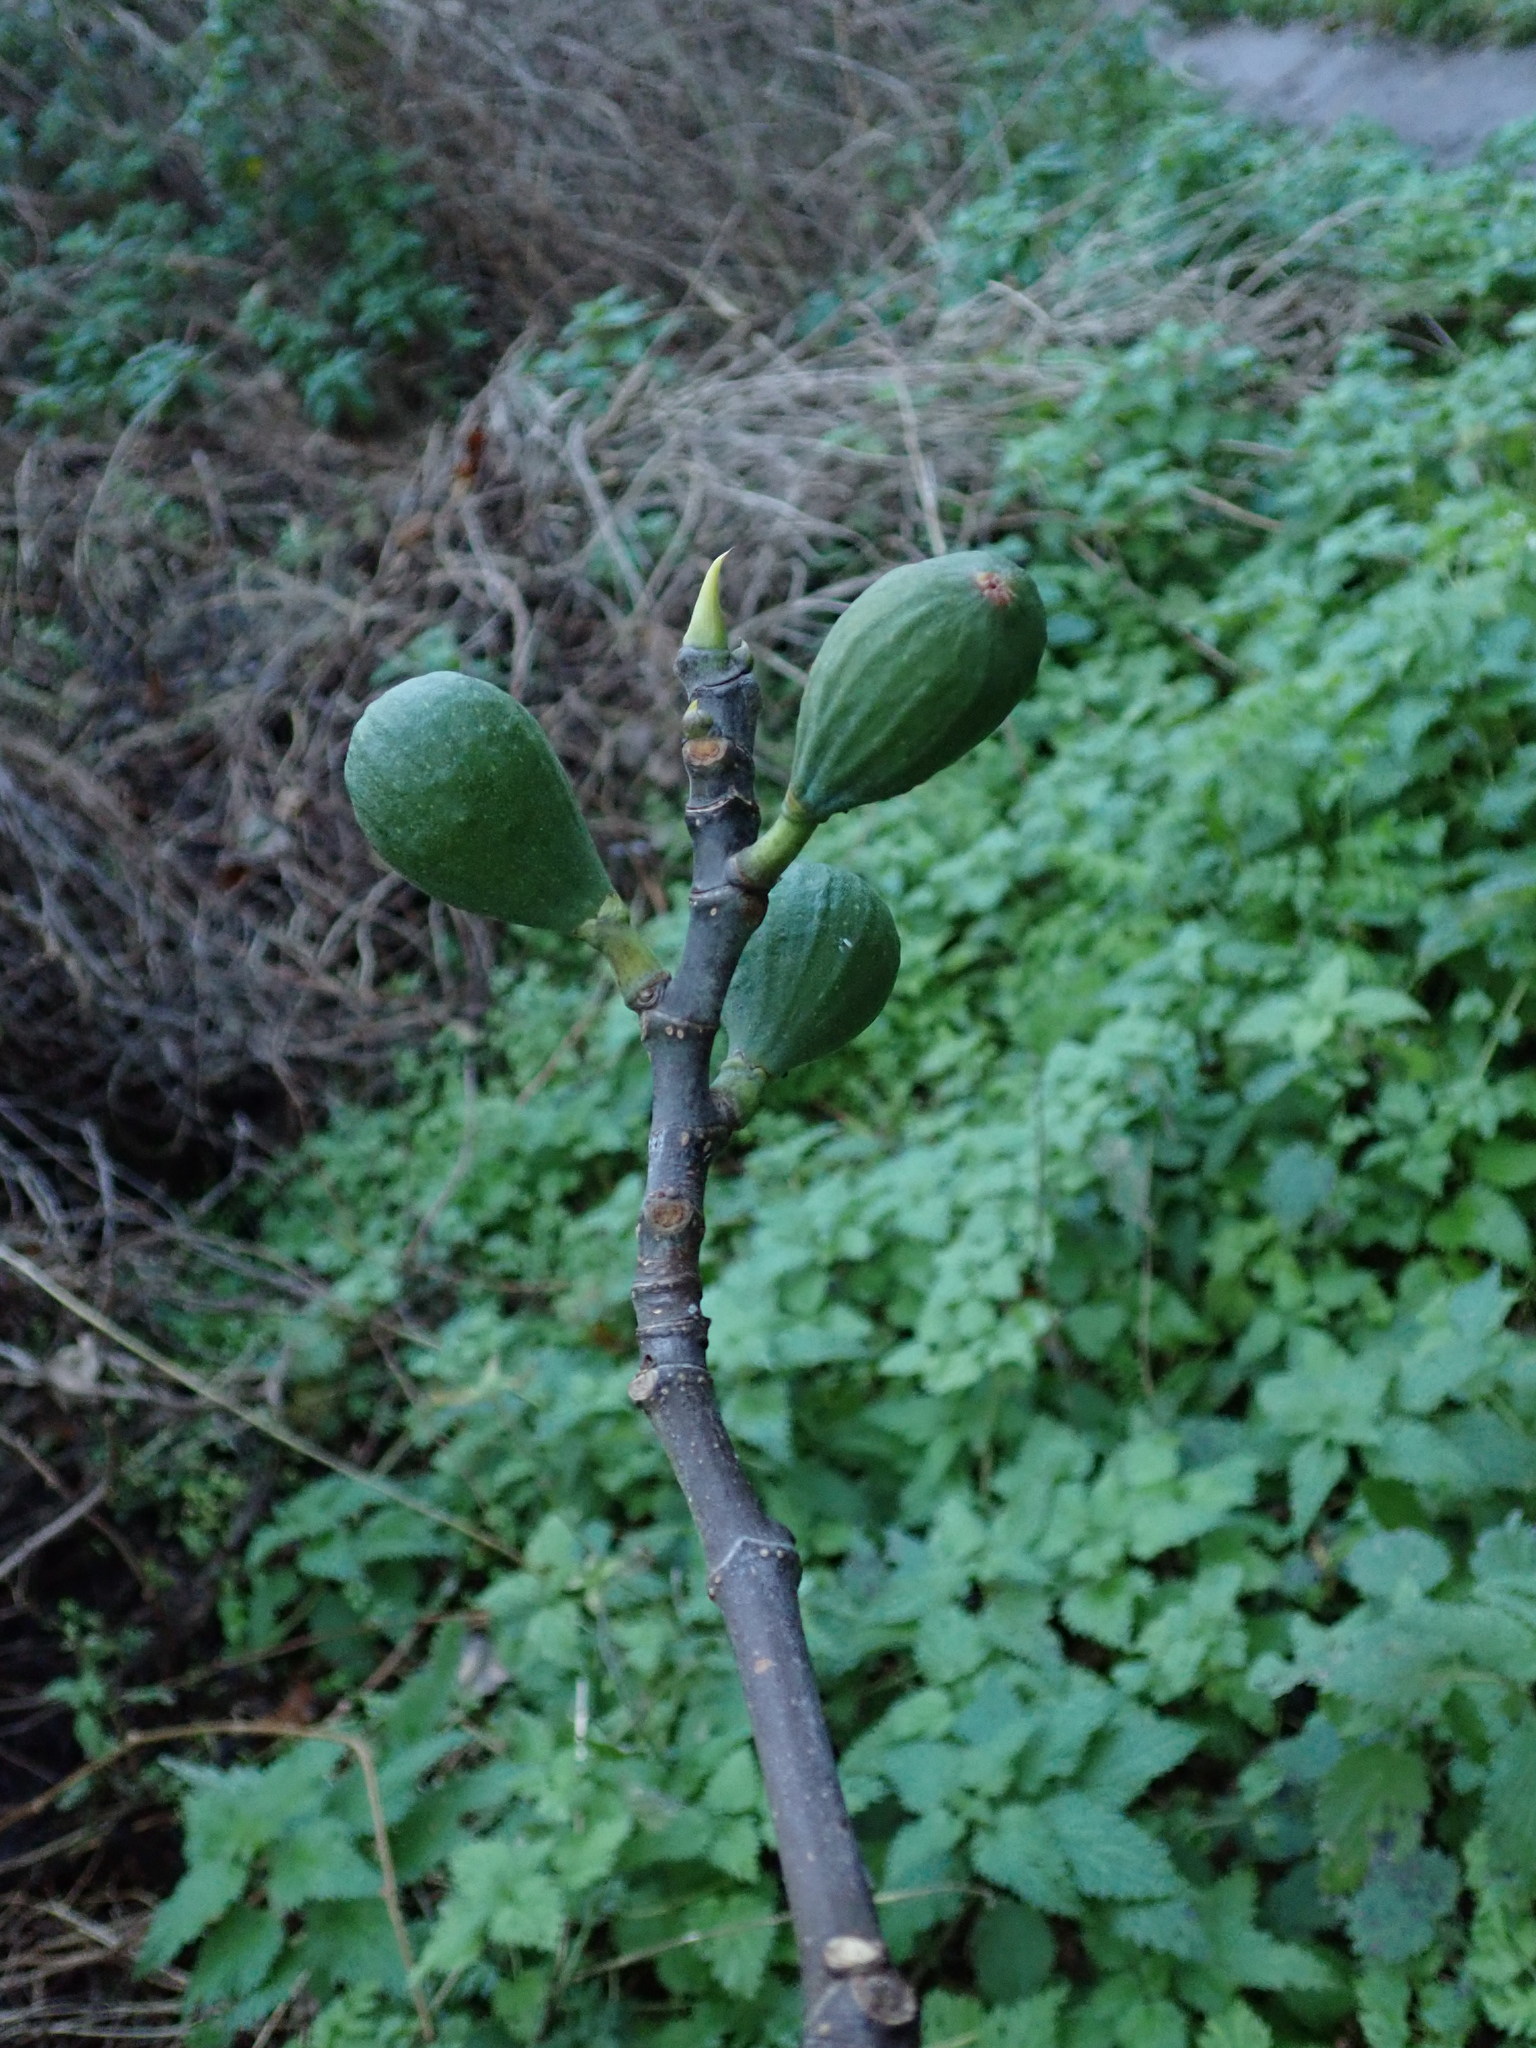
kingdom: Plantae
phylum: Tracheophyta
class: Magnoliopsida
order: Rosales
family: Moraceae
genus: Ficus
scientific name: Ficus carica
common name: Fig
